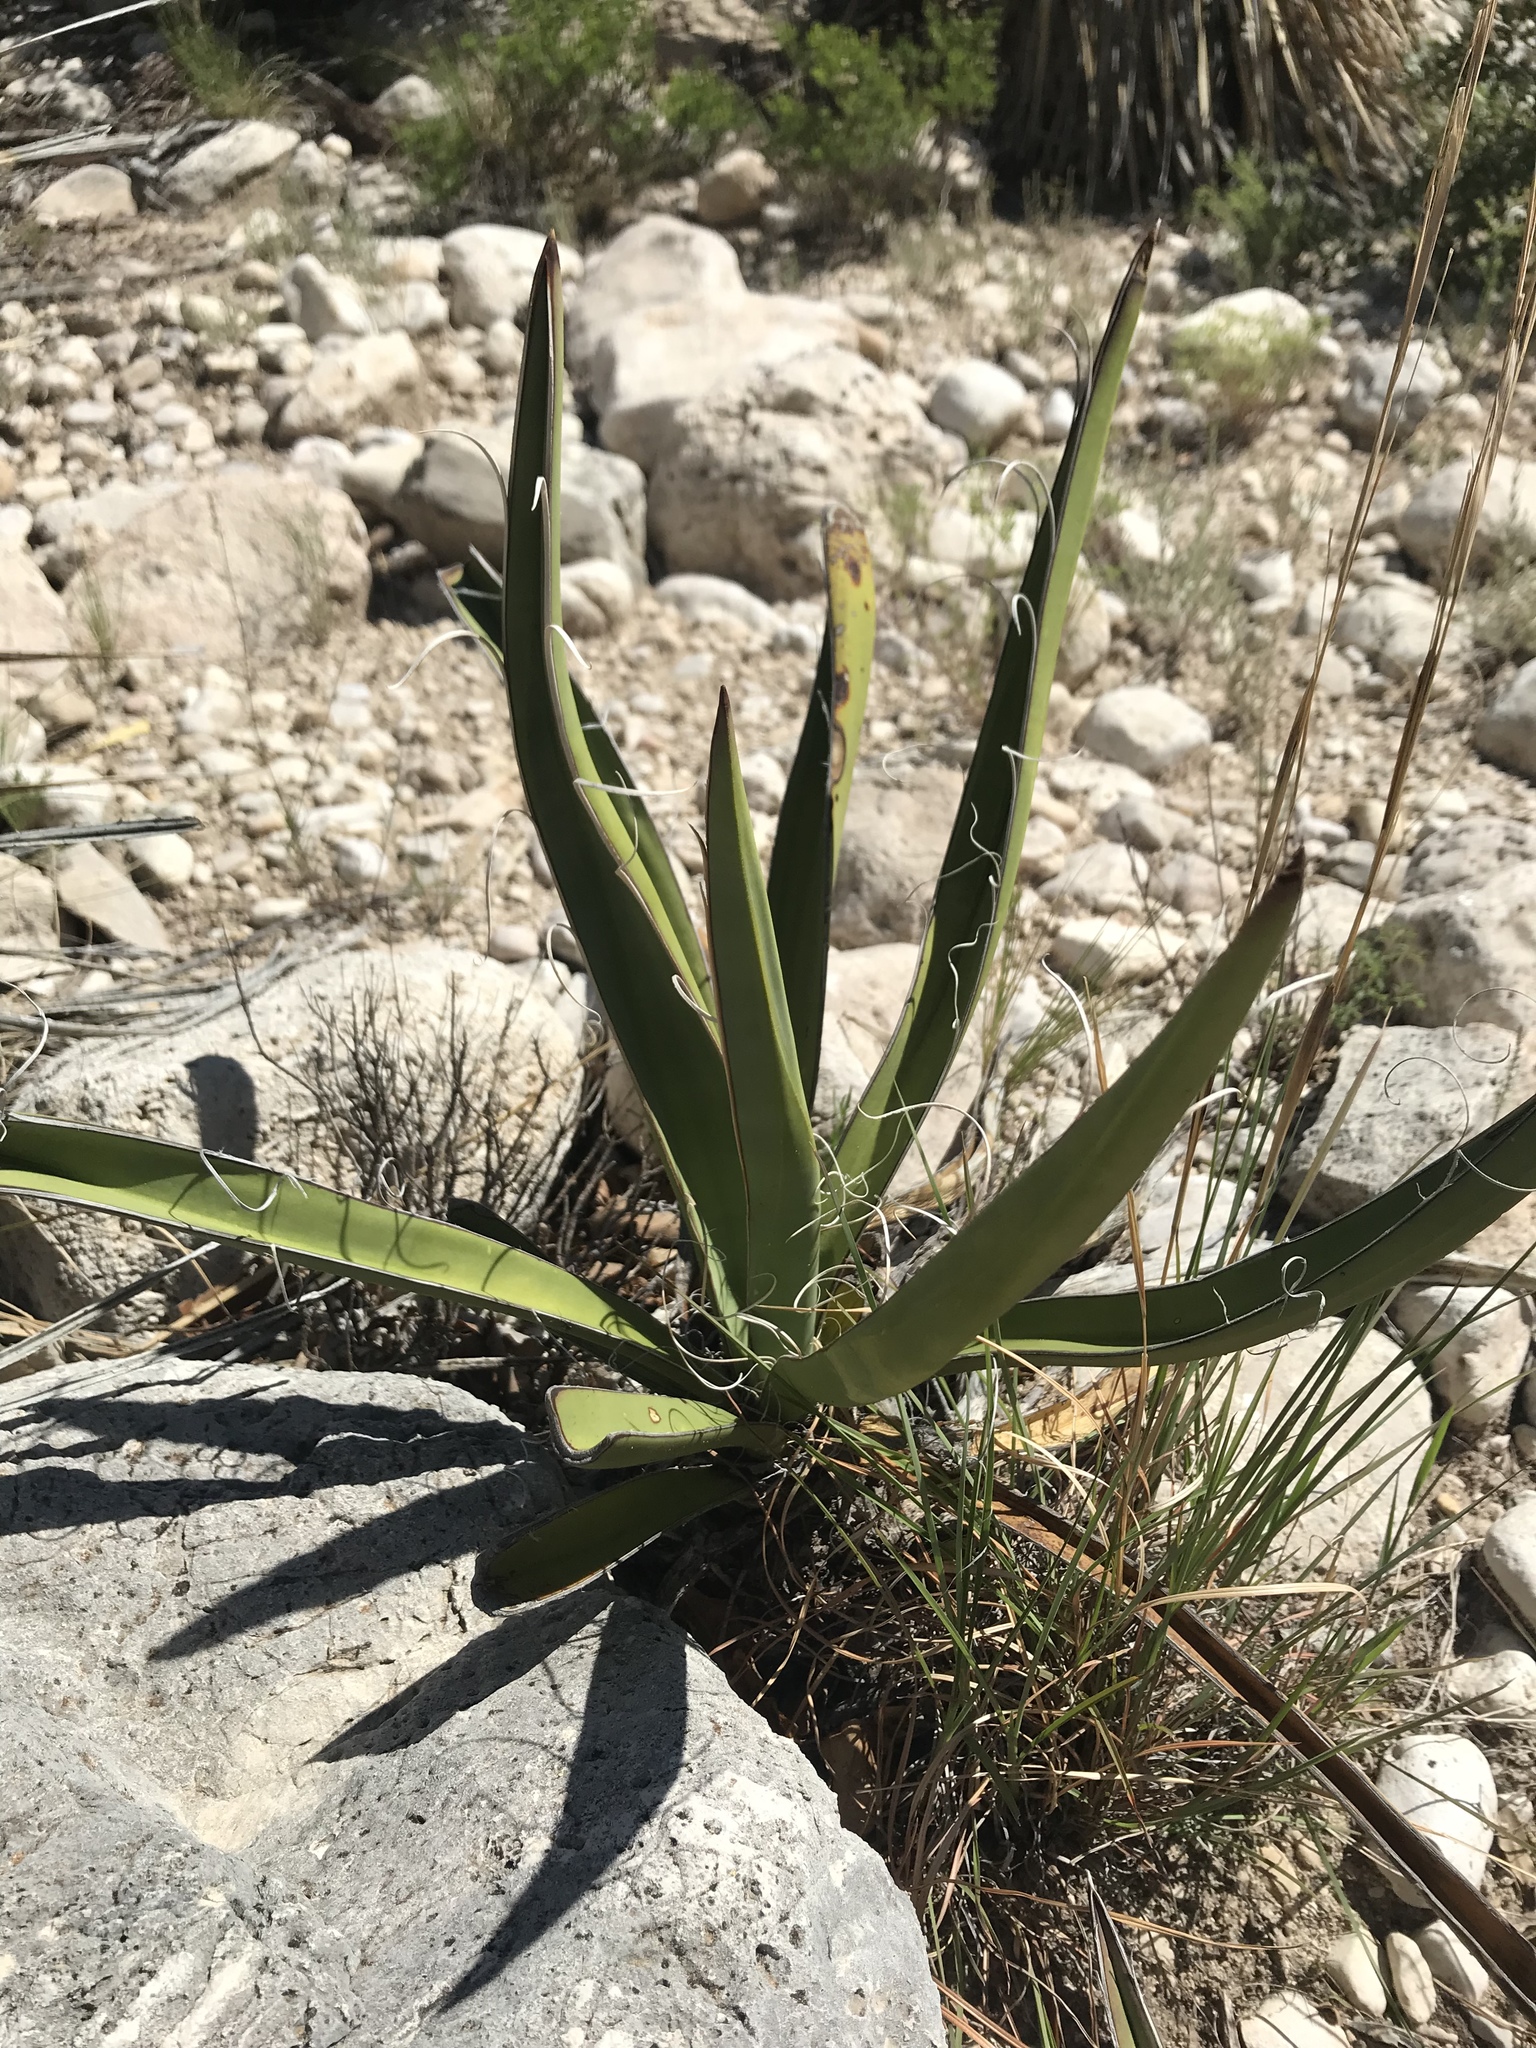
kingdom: Plantae
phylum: Tracheophyta
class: Liliopsida
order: Asparagales
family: Asparagaceae
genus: Yucca
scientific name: Yucca baccata
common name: Banana yucca
